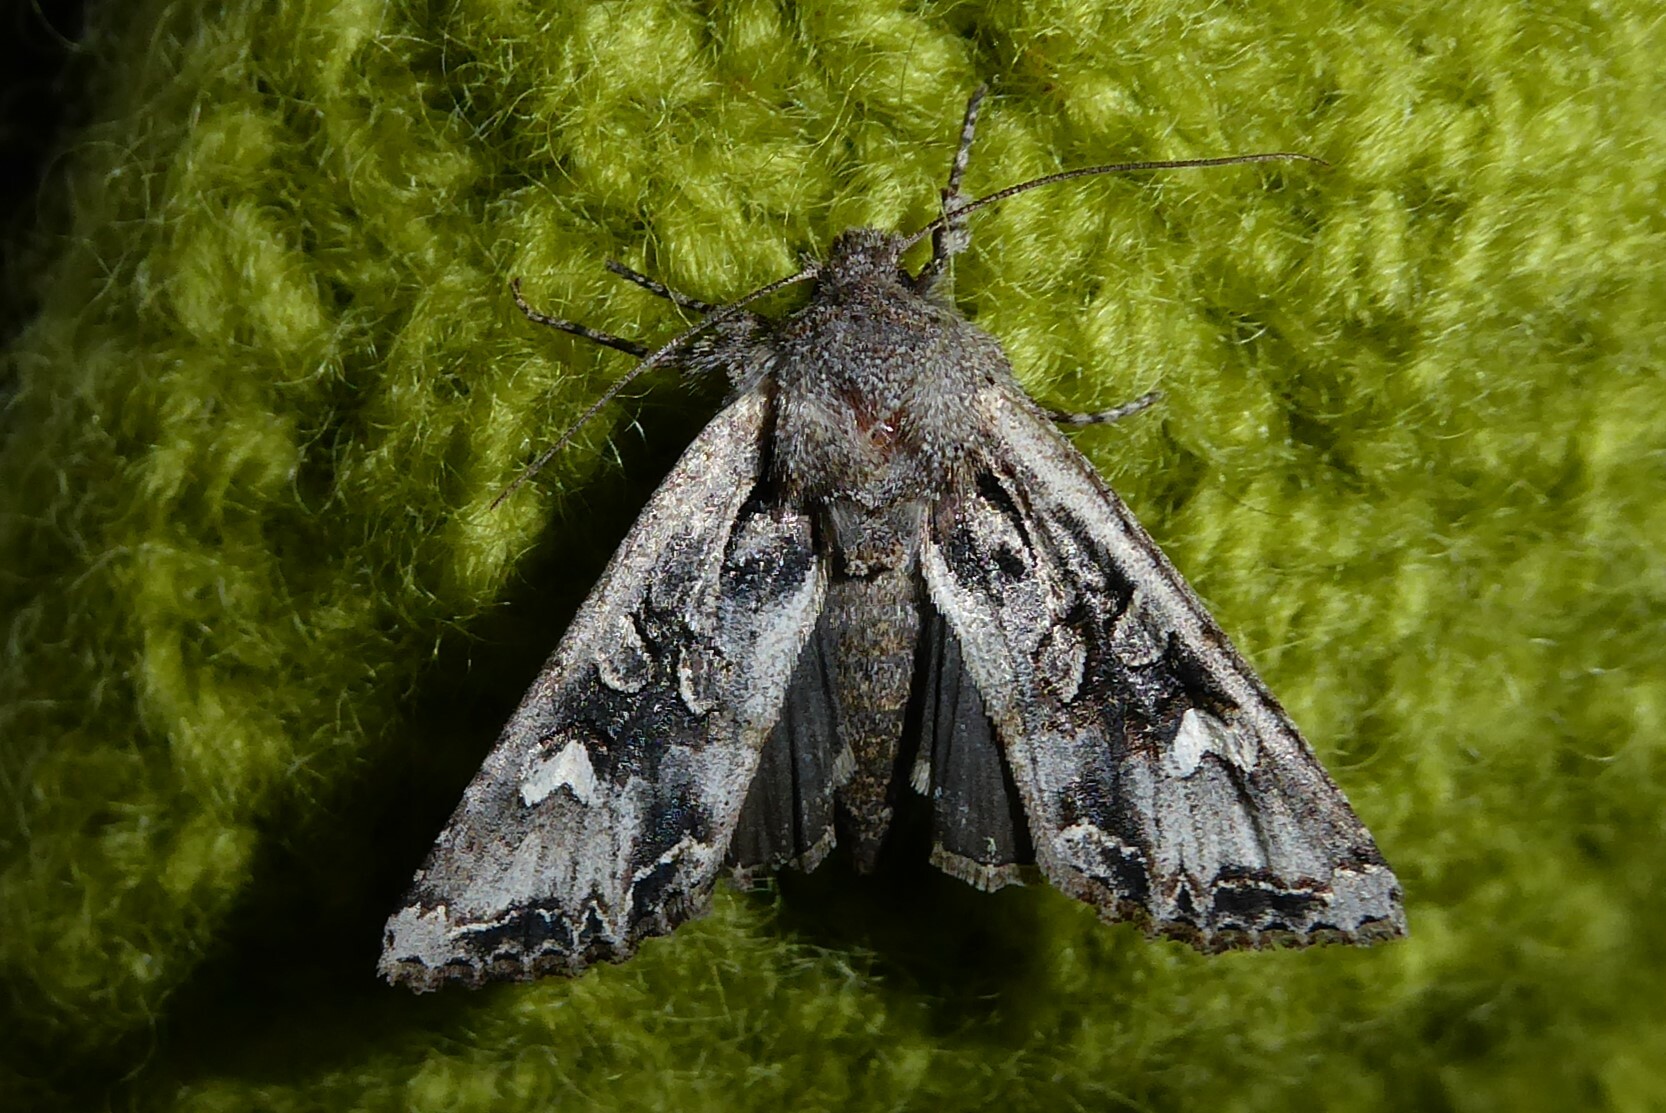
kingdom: Animalia
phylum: Arthropoda
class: Insecta
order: Lepidoptera
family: Noctuidae
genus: Ichneutica
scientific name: Ichneutica
